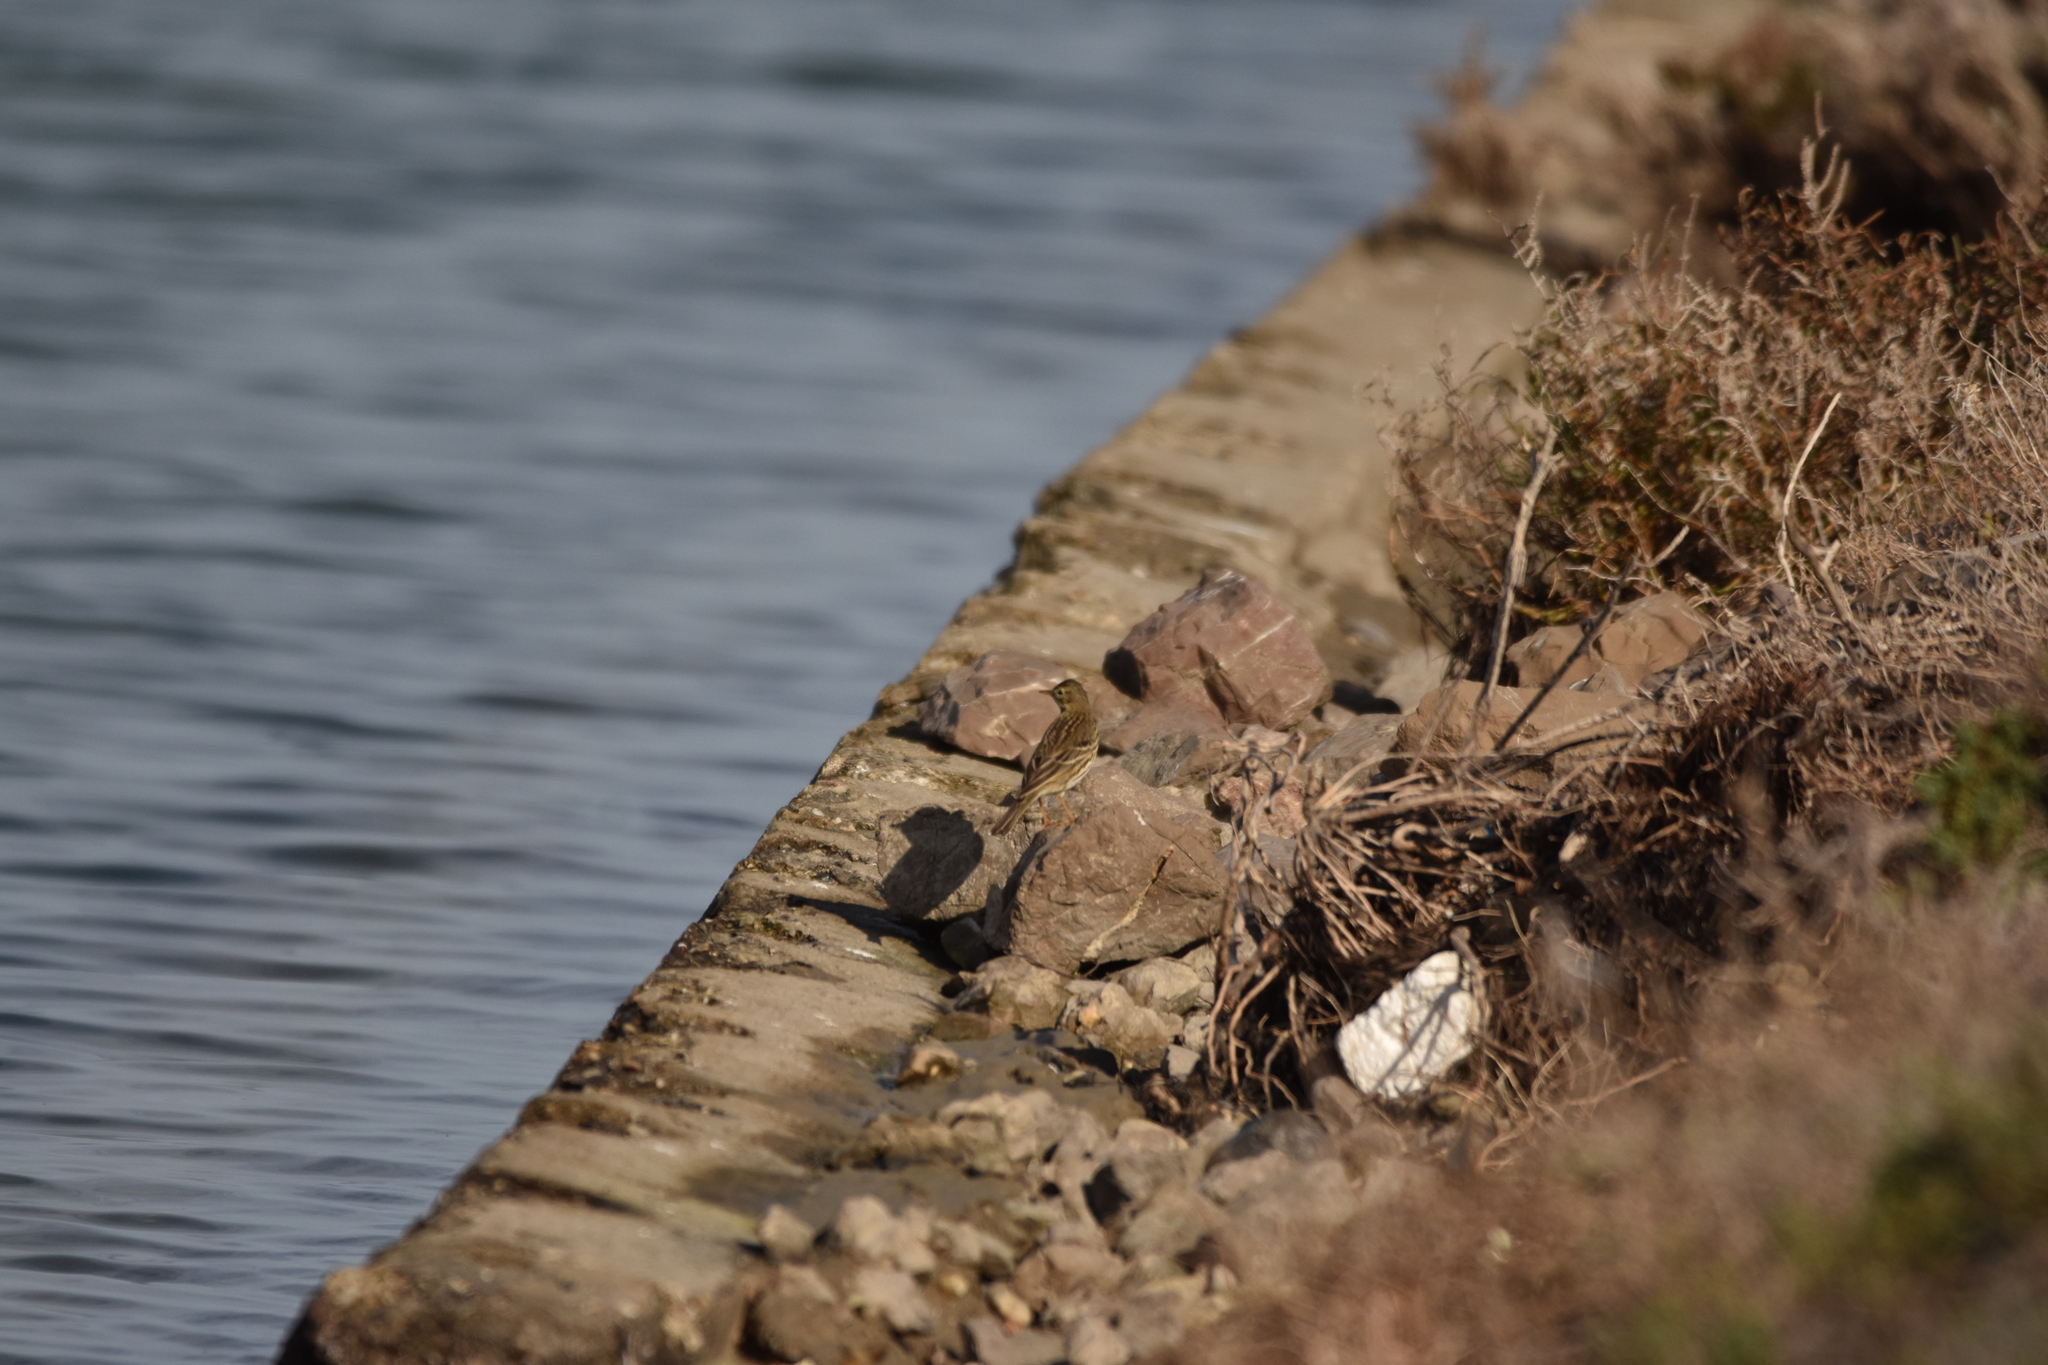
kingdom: Animalia
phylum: Chordata
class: Aves
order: Passeriformes
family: Motacillidae
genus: Anthus
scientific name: Anthus pratensis
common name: Meadow pipit
